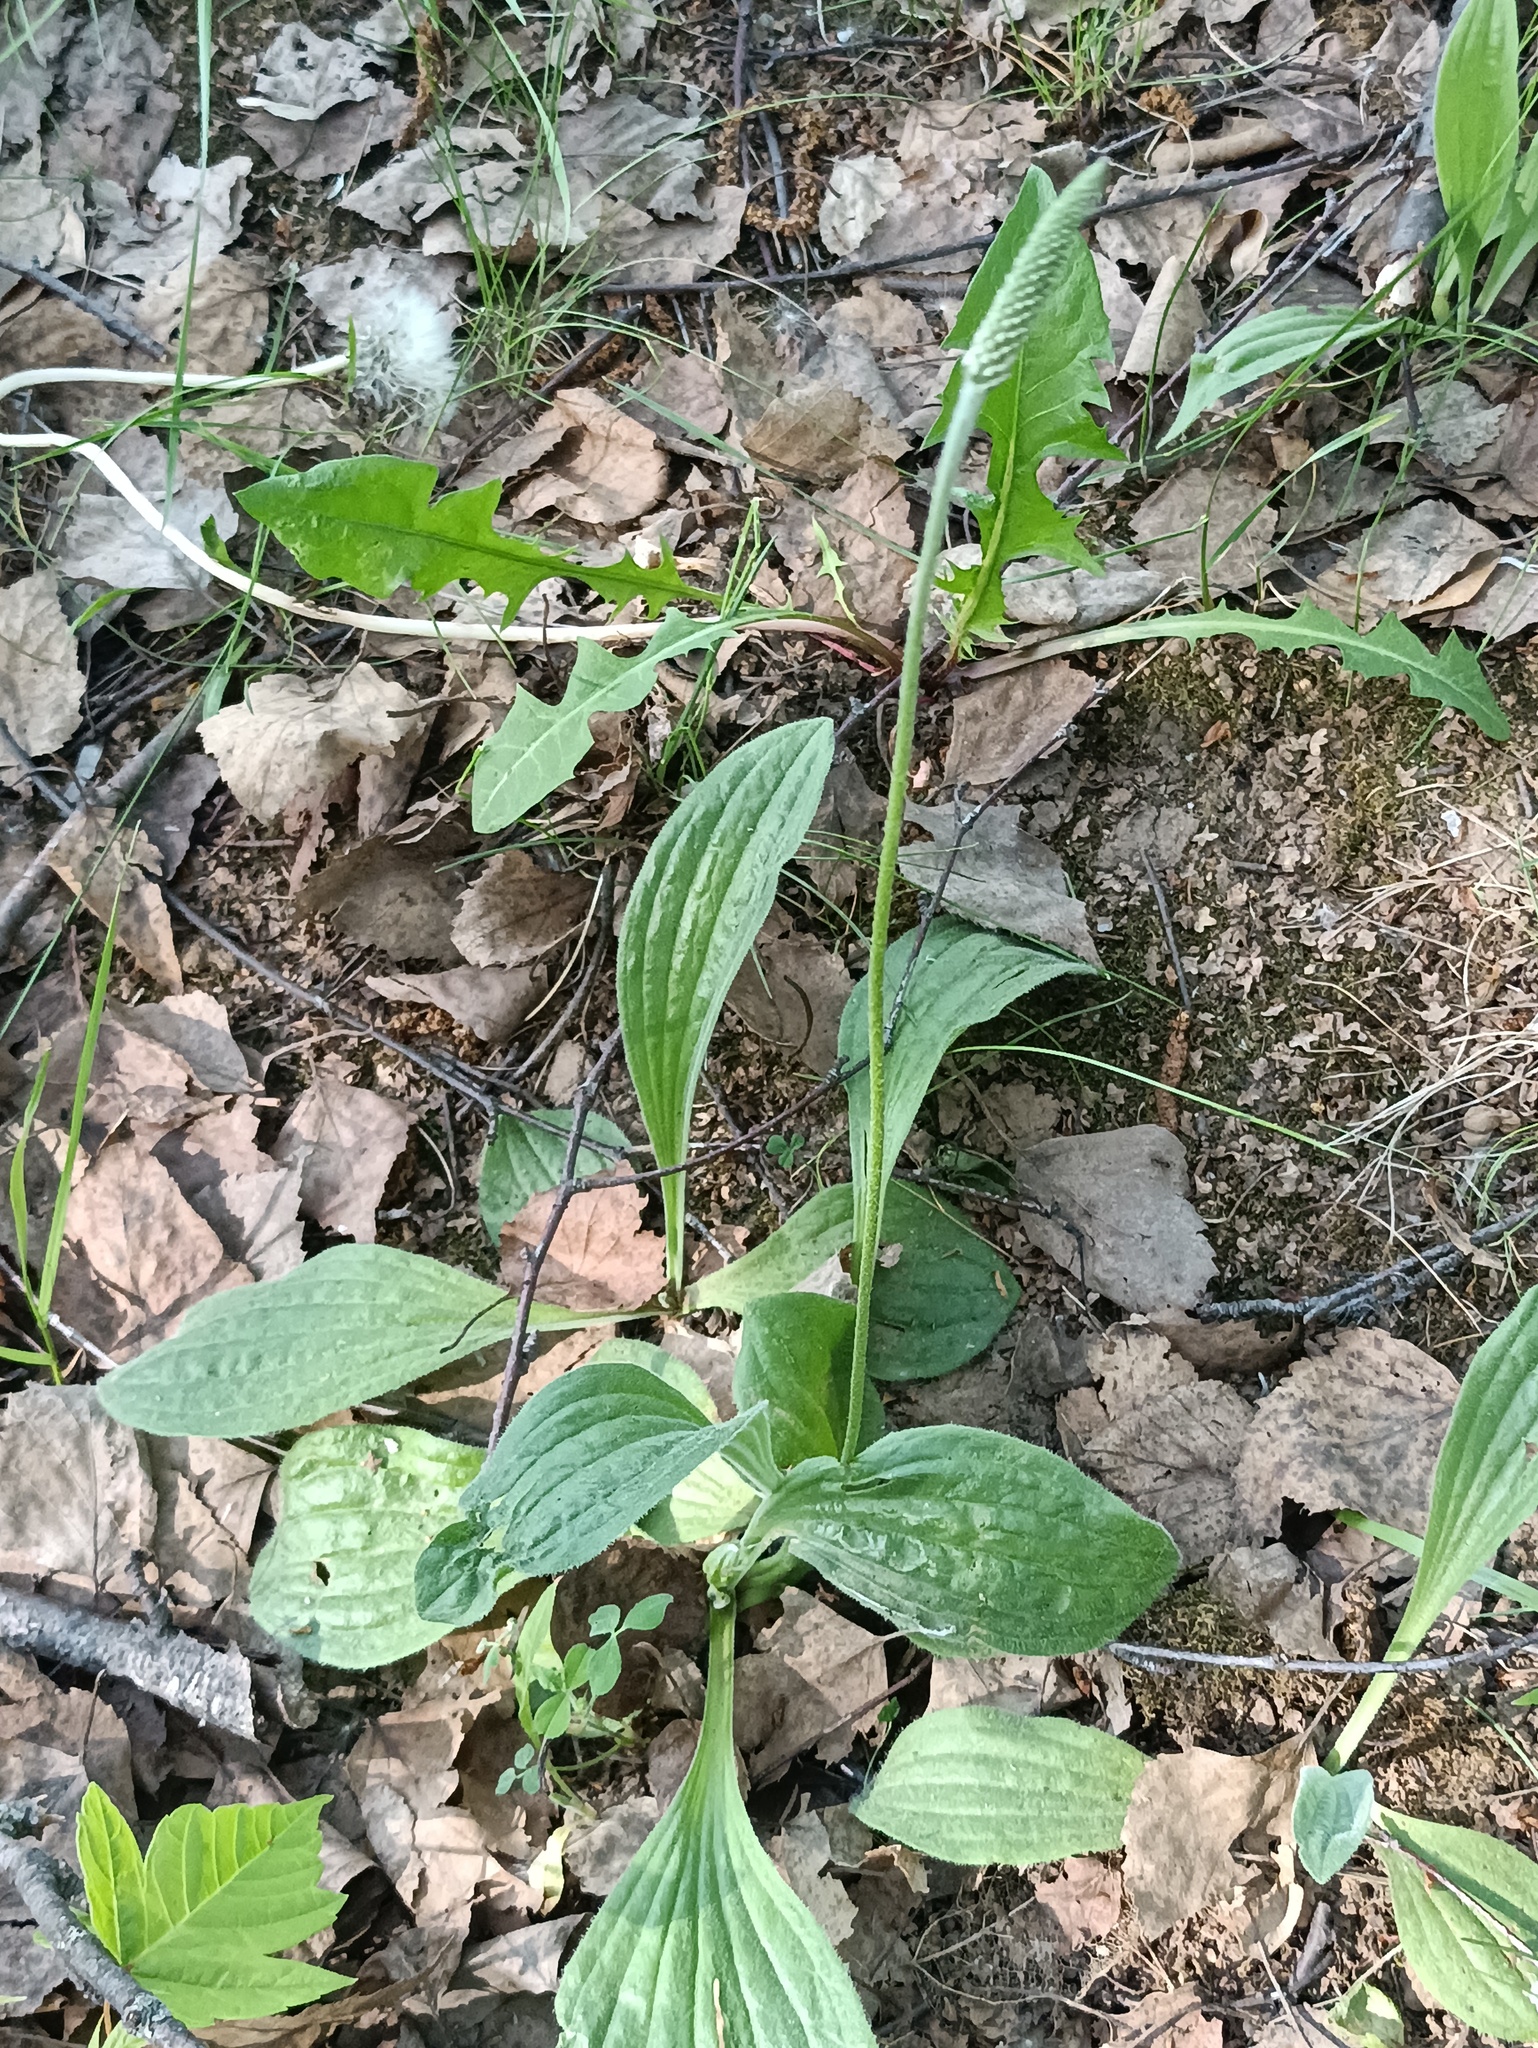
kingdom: Plantae
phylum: Tracheophyta
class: Magnoliopsida
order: Lamiales
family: Plantaginaceae
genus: Plantago
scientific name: Plantago urvillei
